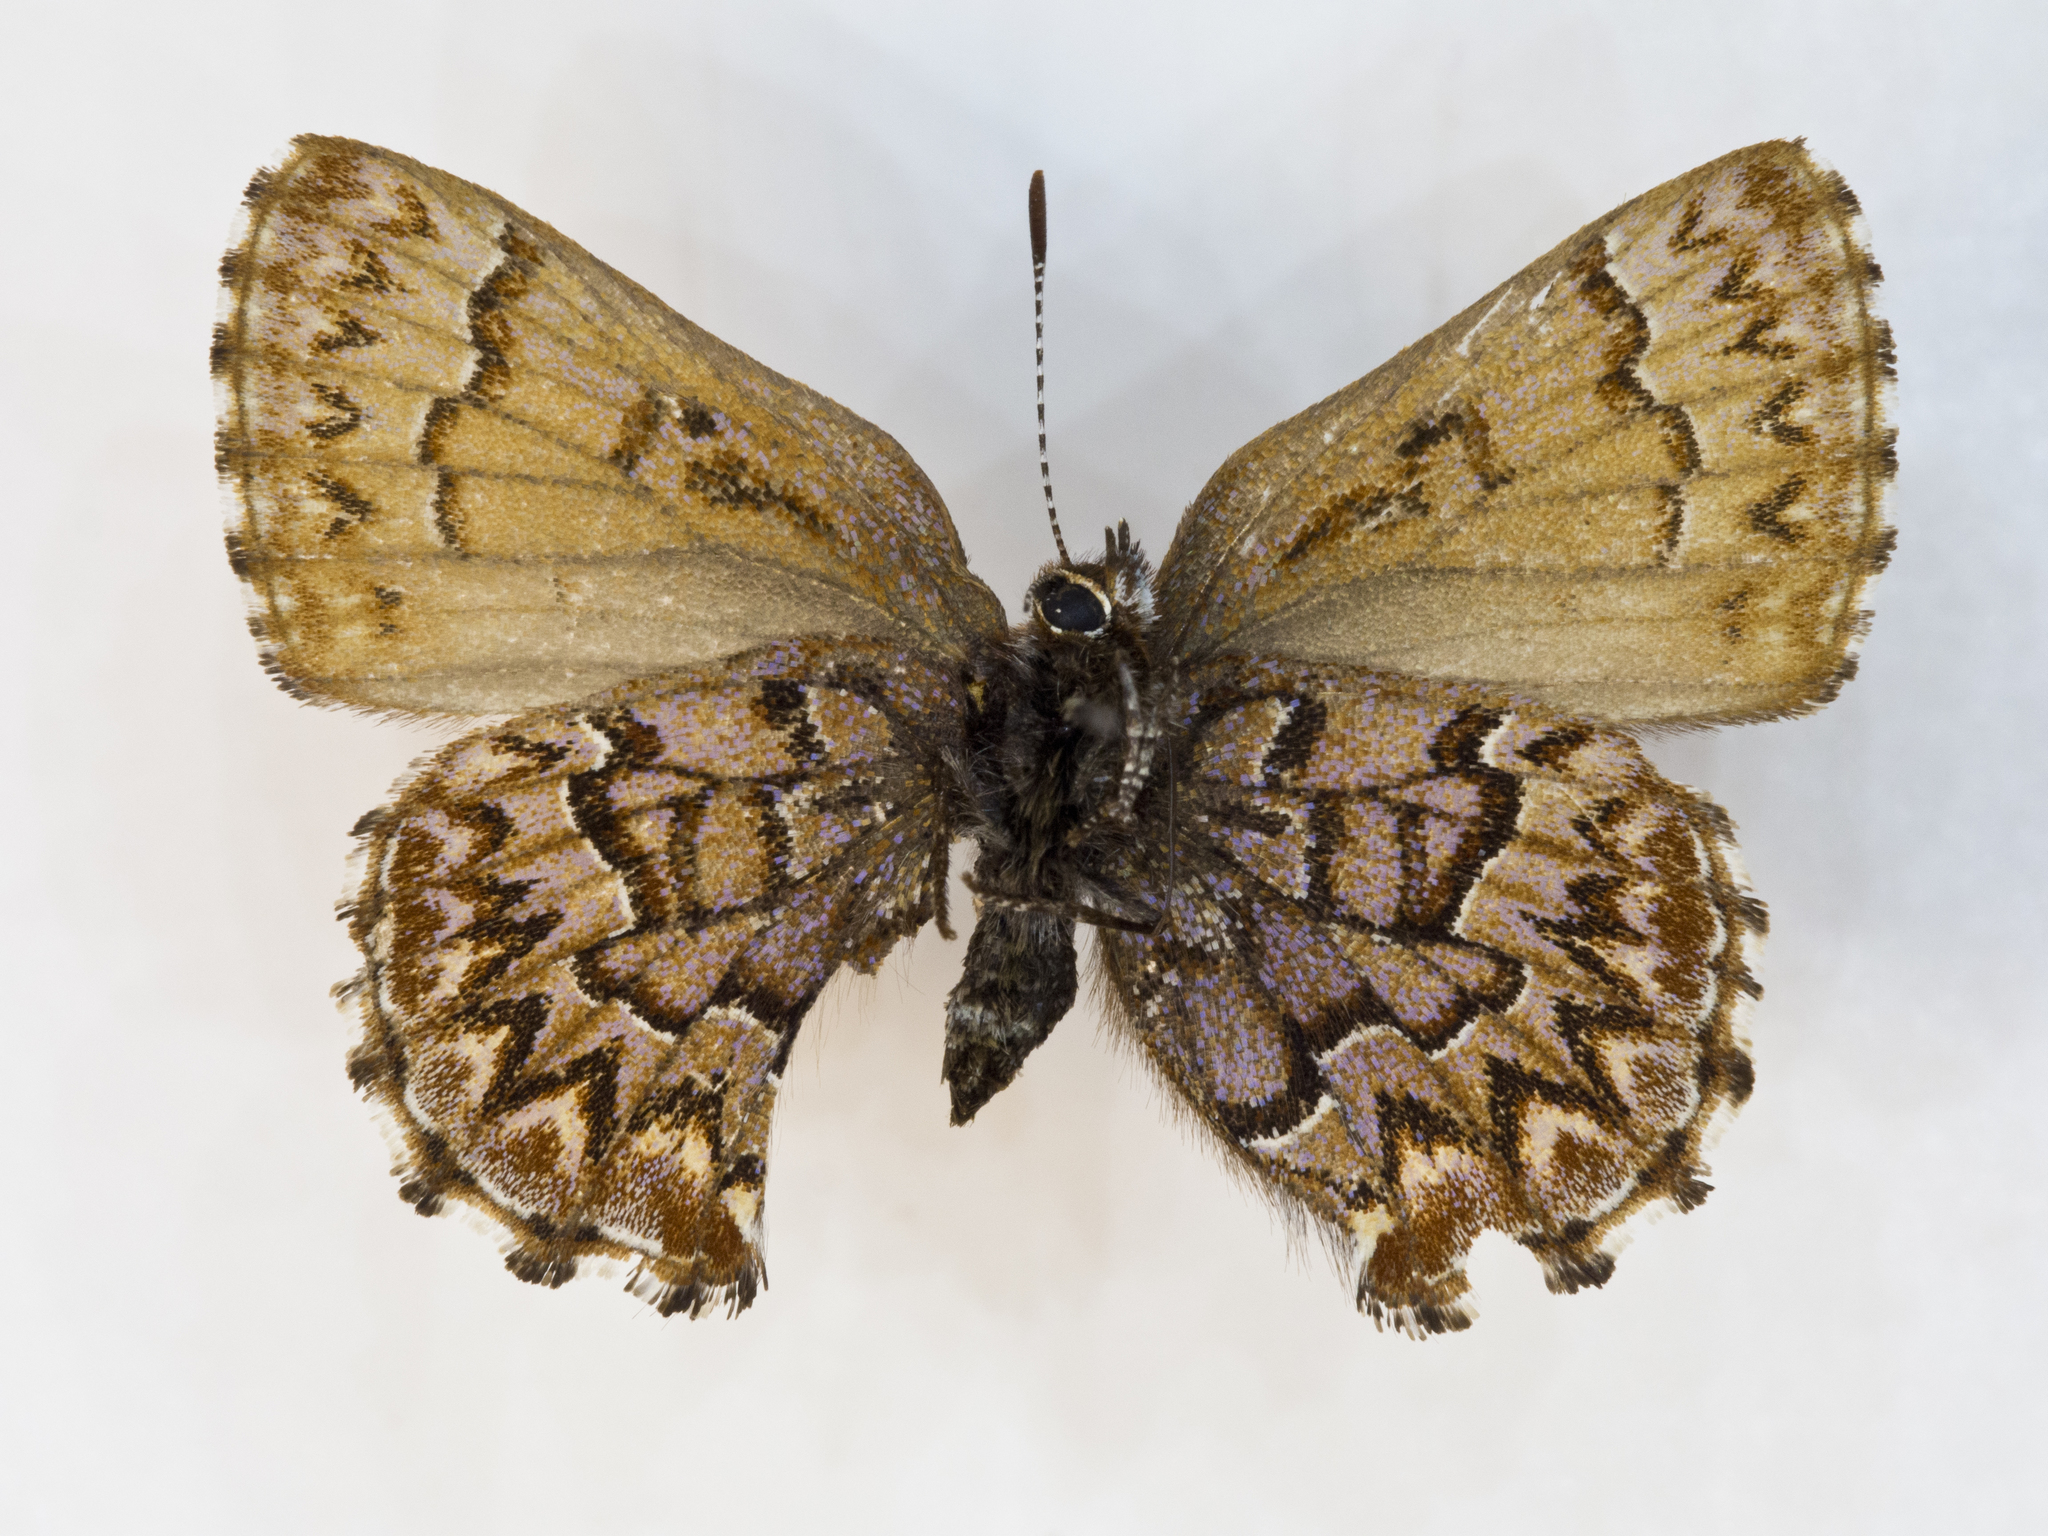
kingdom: Animalia
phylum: Arthropoda
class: Insecta
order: Lepidoptera
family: Lycaenidae
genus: Incisalia
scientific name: Incisalia eryphon
